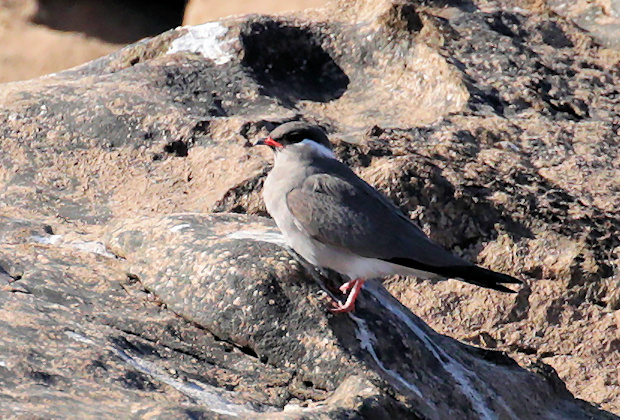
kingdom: Animalia
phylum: Chordata
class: Aves
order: Charadriiformes
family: Glareolidae
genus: Glareola
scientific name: Glareola nuchalis
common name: Rock pratincole
